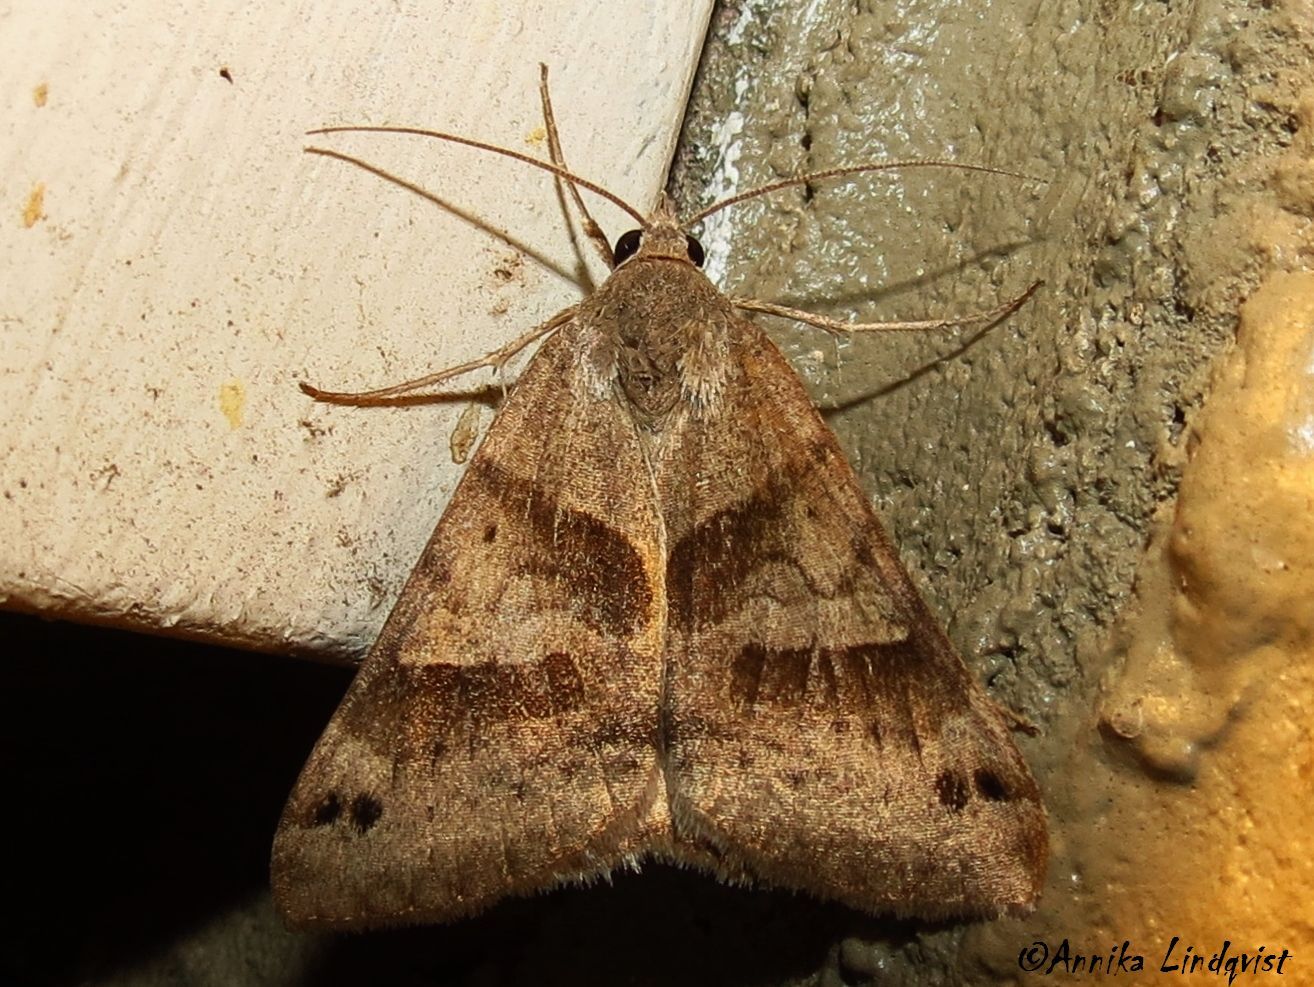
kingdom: Animalia
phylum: Arthropoda
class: Insecta
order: Lepidoptera
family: Erebidae
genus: Caenurgina
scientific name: Caenurgina erechtea
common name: Forage looper moth
